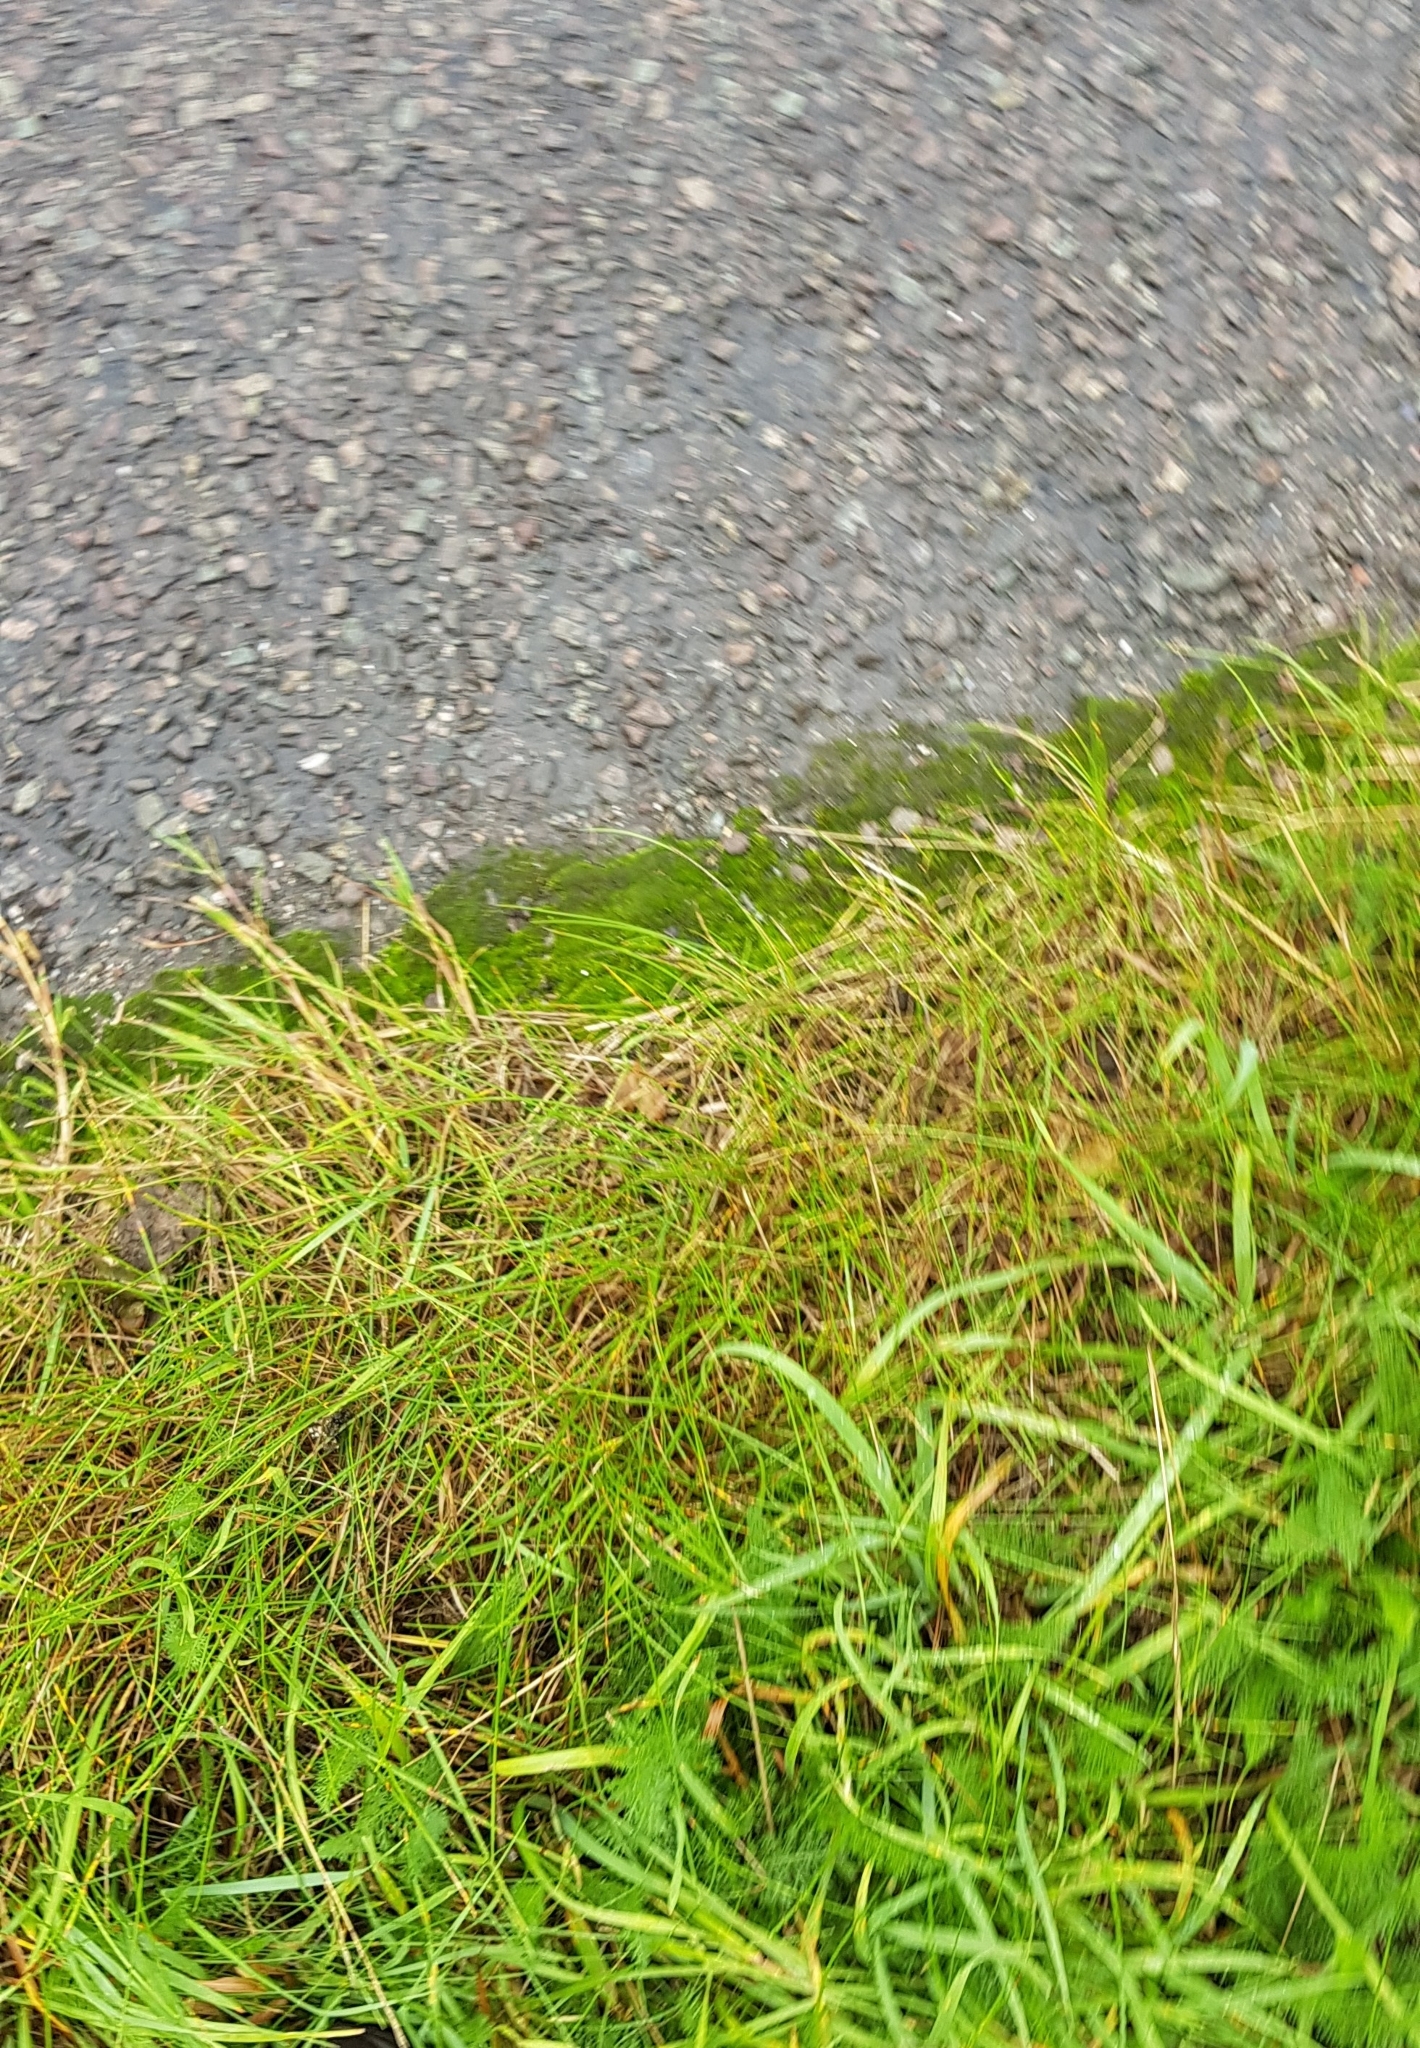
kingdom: Plantae
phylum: Bryophyta
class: Bryopsida
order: Bryales
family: Bryaceae
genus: Gemmabryum
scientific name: Gemmabryum dichotomum
